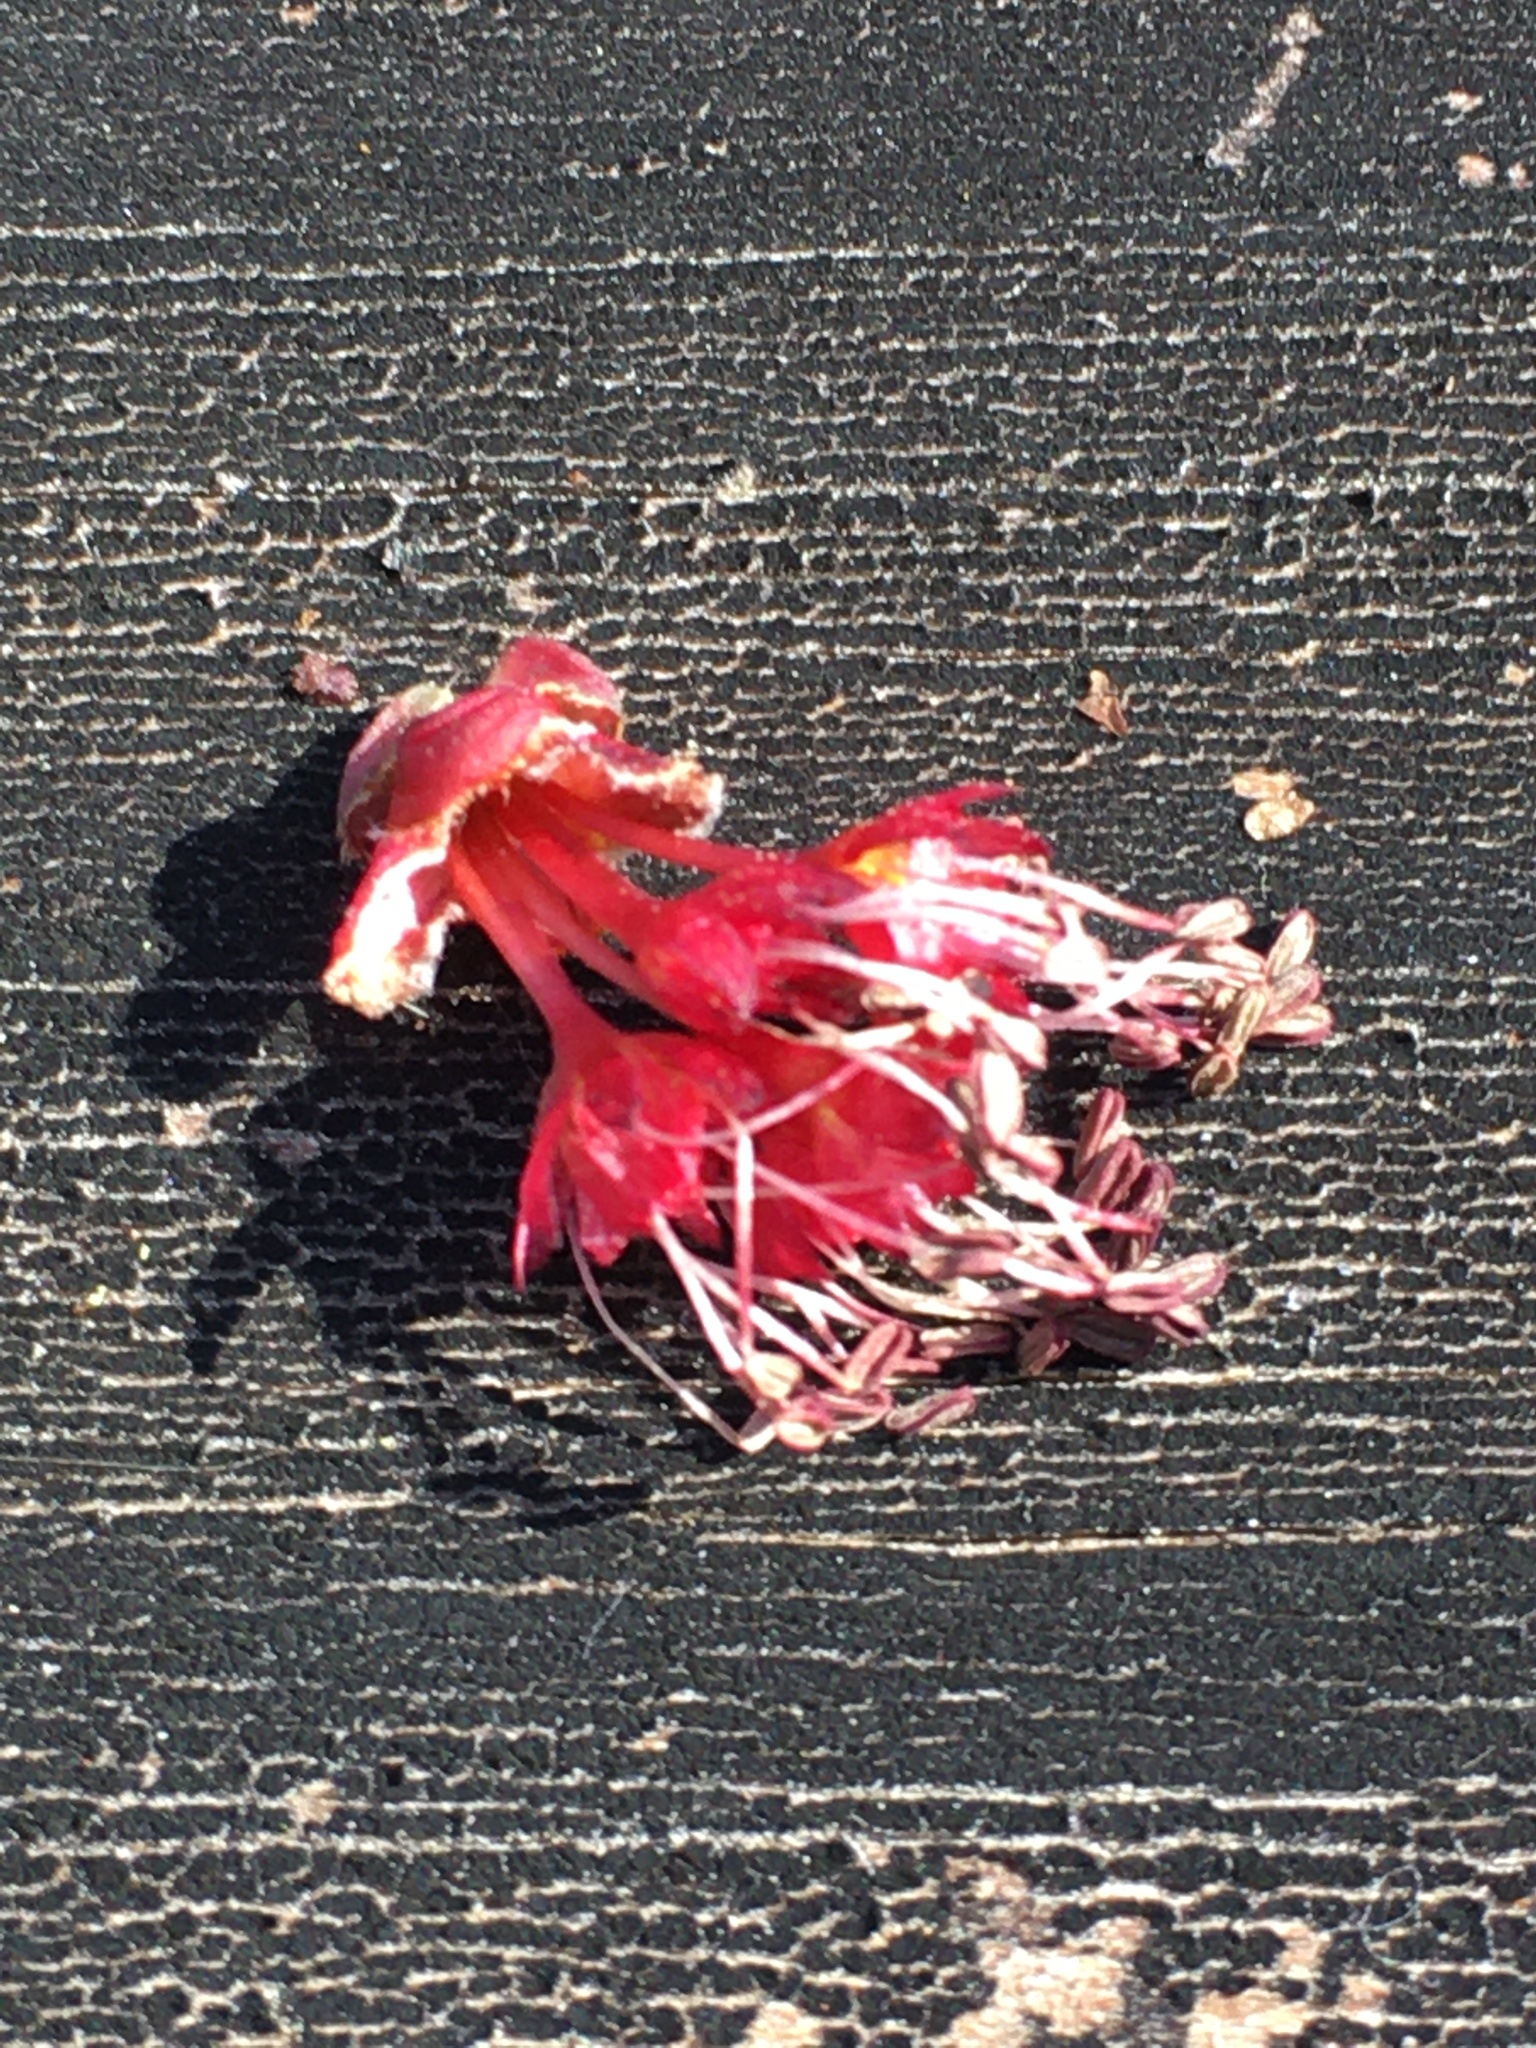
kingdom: Plantae
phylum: Tracheophyta
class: Magnoliopsida
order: Sapindales
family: Sapindaceae
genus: Acer
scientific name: Acer rubrum
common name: Red maple
